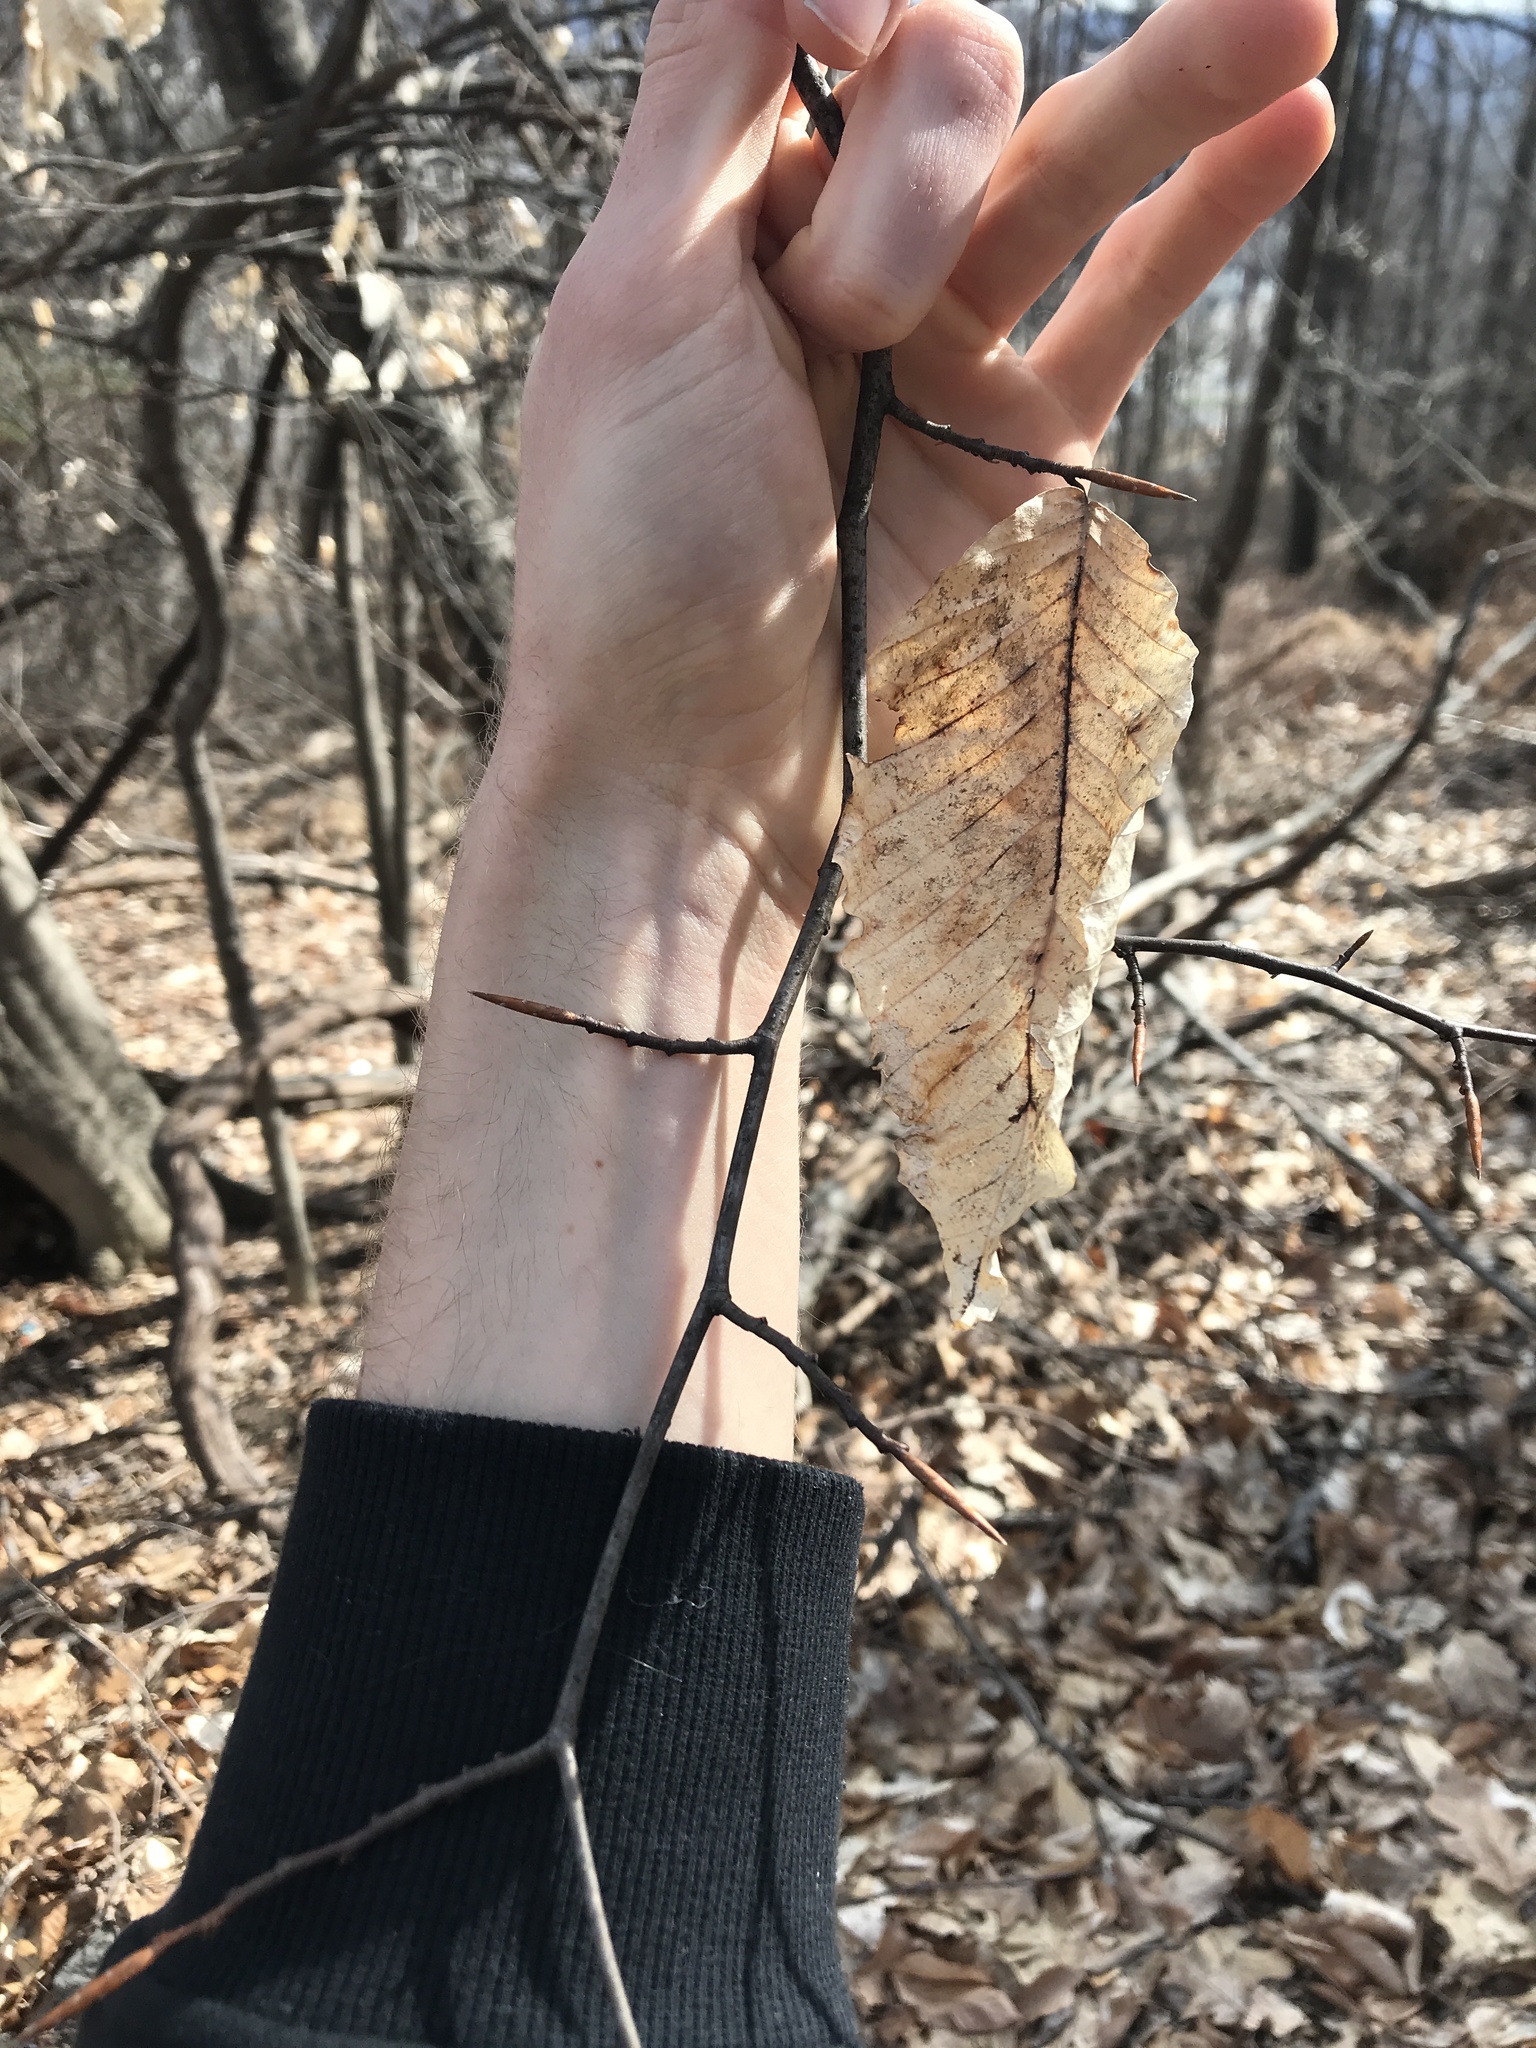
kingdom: Plantae
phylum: Tracheophyta
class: Magnoliopsida
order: Fagales
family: Fagaceae
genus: Fagus
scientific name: Fagus grandifolia
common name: American beech
